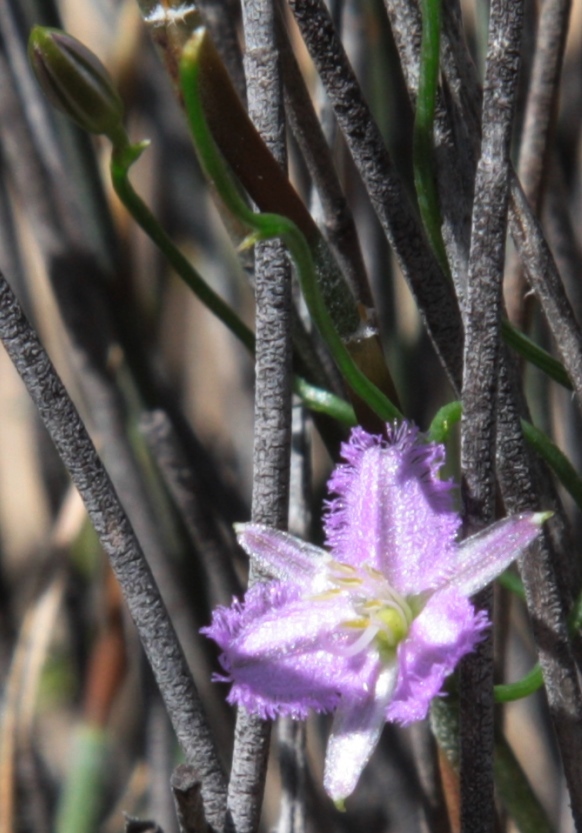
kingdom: Plantae
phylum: Tracheophyta
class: Liliopsida
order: Asparagales
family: Asparagaceae
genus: Thysanotus
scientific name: Thysanotus patersonii
